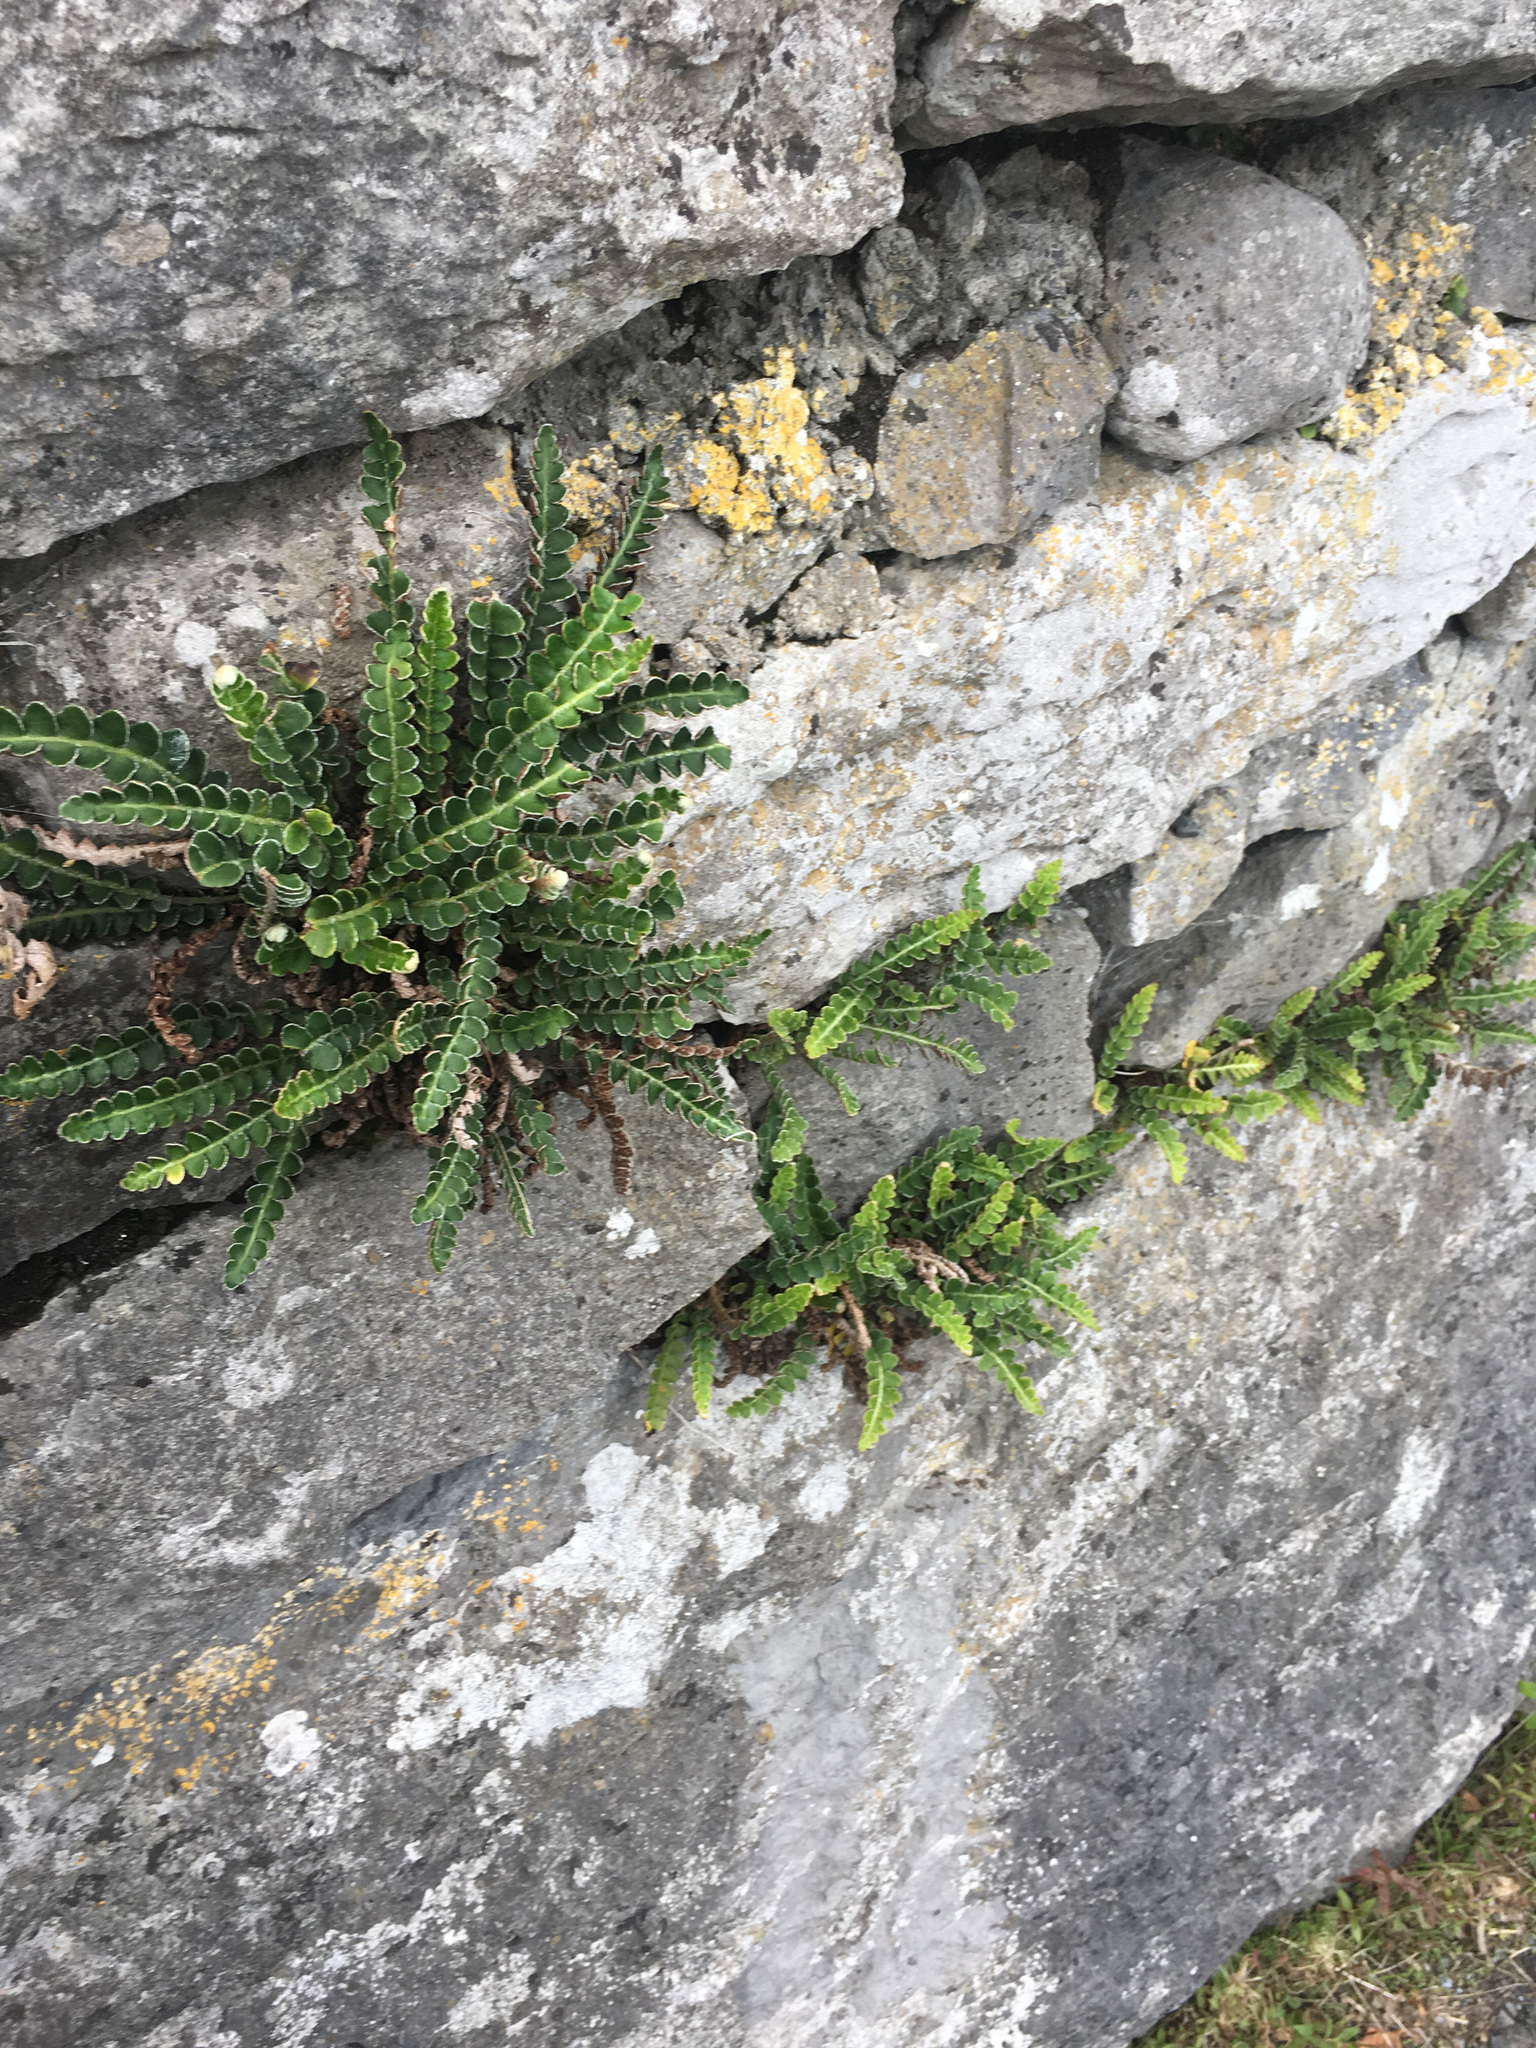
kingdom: Plantae
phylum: Tracheophyta
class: Polypodiopsida
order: Polypodiales
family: Aspleniaceae
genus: Asplenium
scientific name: Asplenium ceterach
